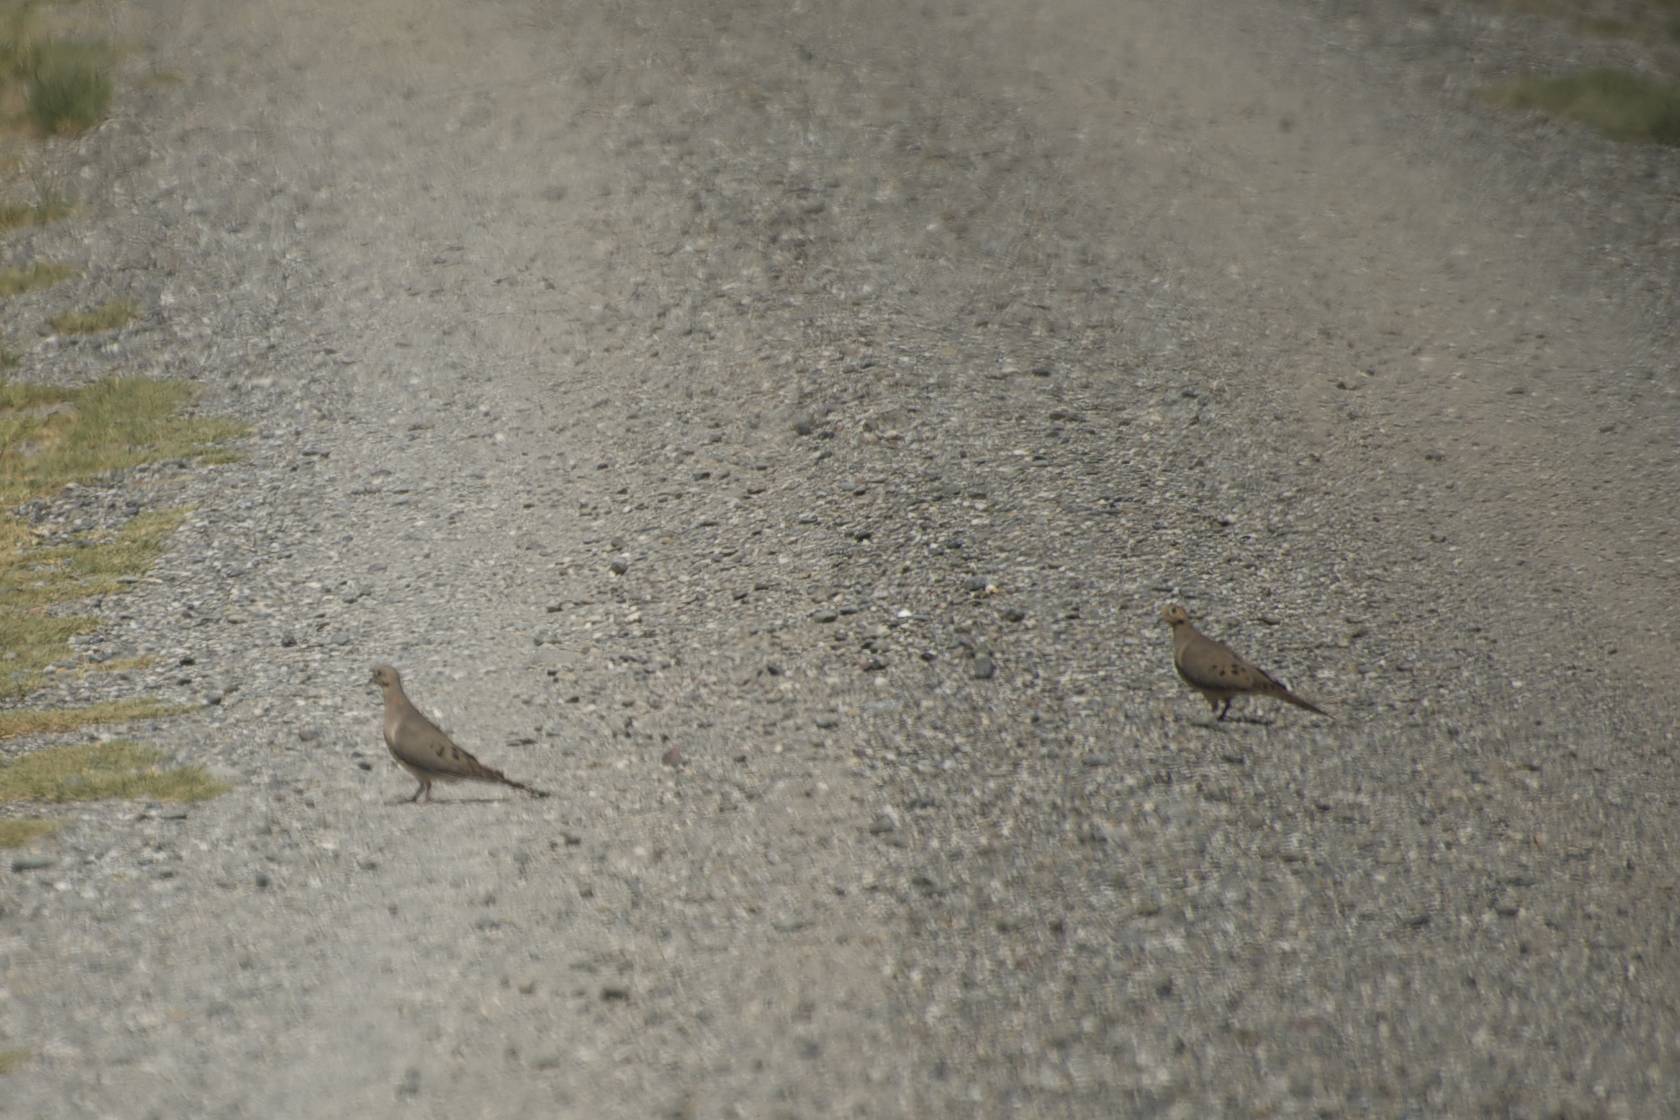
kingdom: Animalia
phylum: Chordata
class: Aves
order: Columbiformes
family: Columbidae
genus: Zenaida
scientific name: Zenaida macroura
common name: Mourning dove
